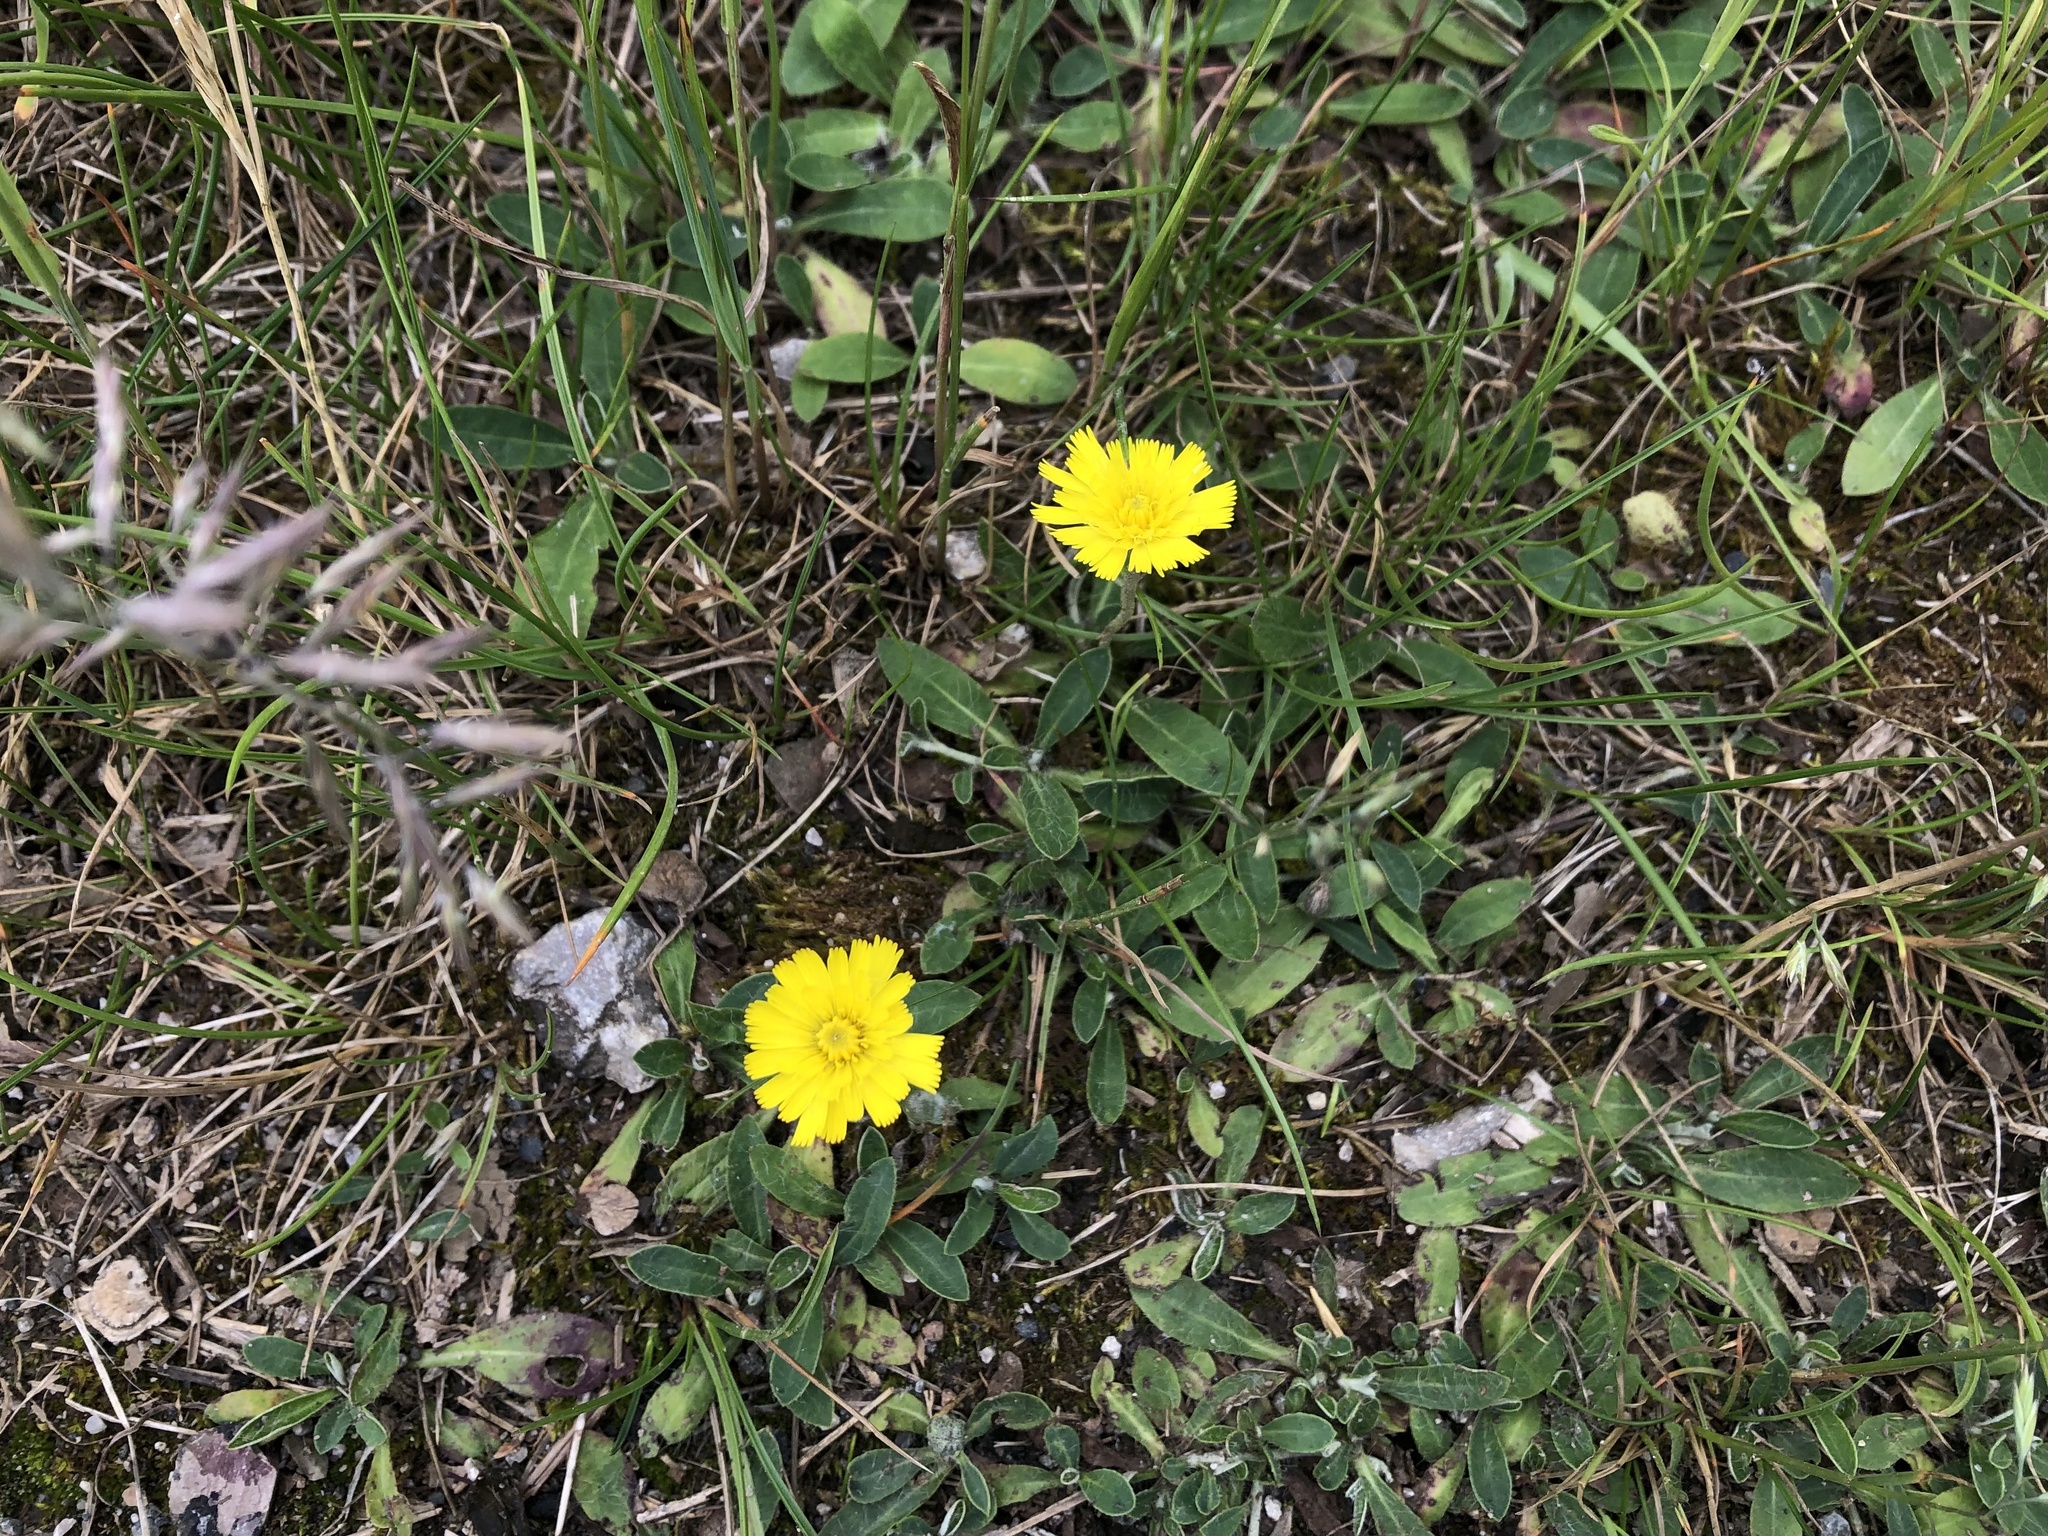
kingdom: Plantae
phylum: Tracheophyta
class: Magnoliopsida
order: Asterales
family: Asteraceae
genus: Pilosella
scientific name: Pilosella officinarum
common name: Mouse-ear hawkweed
